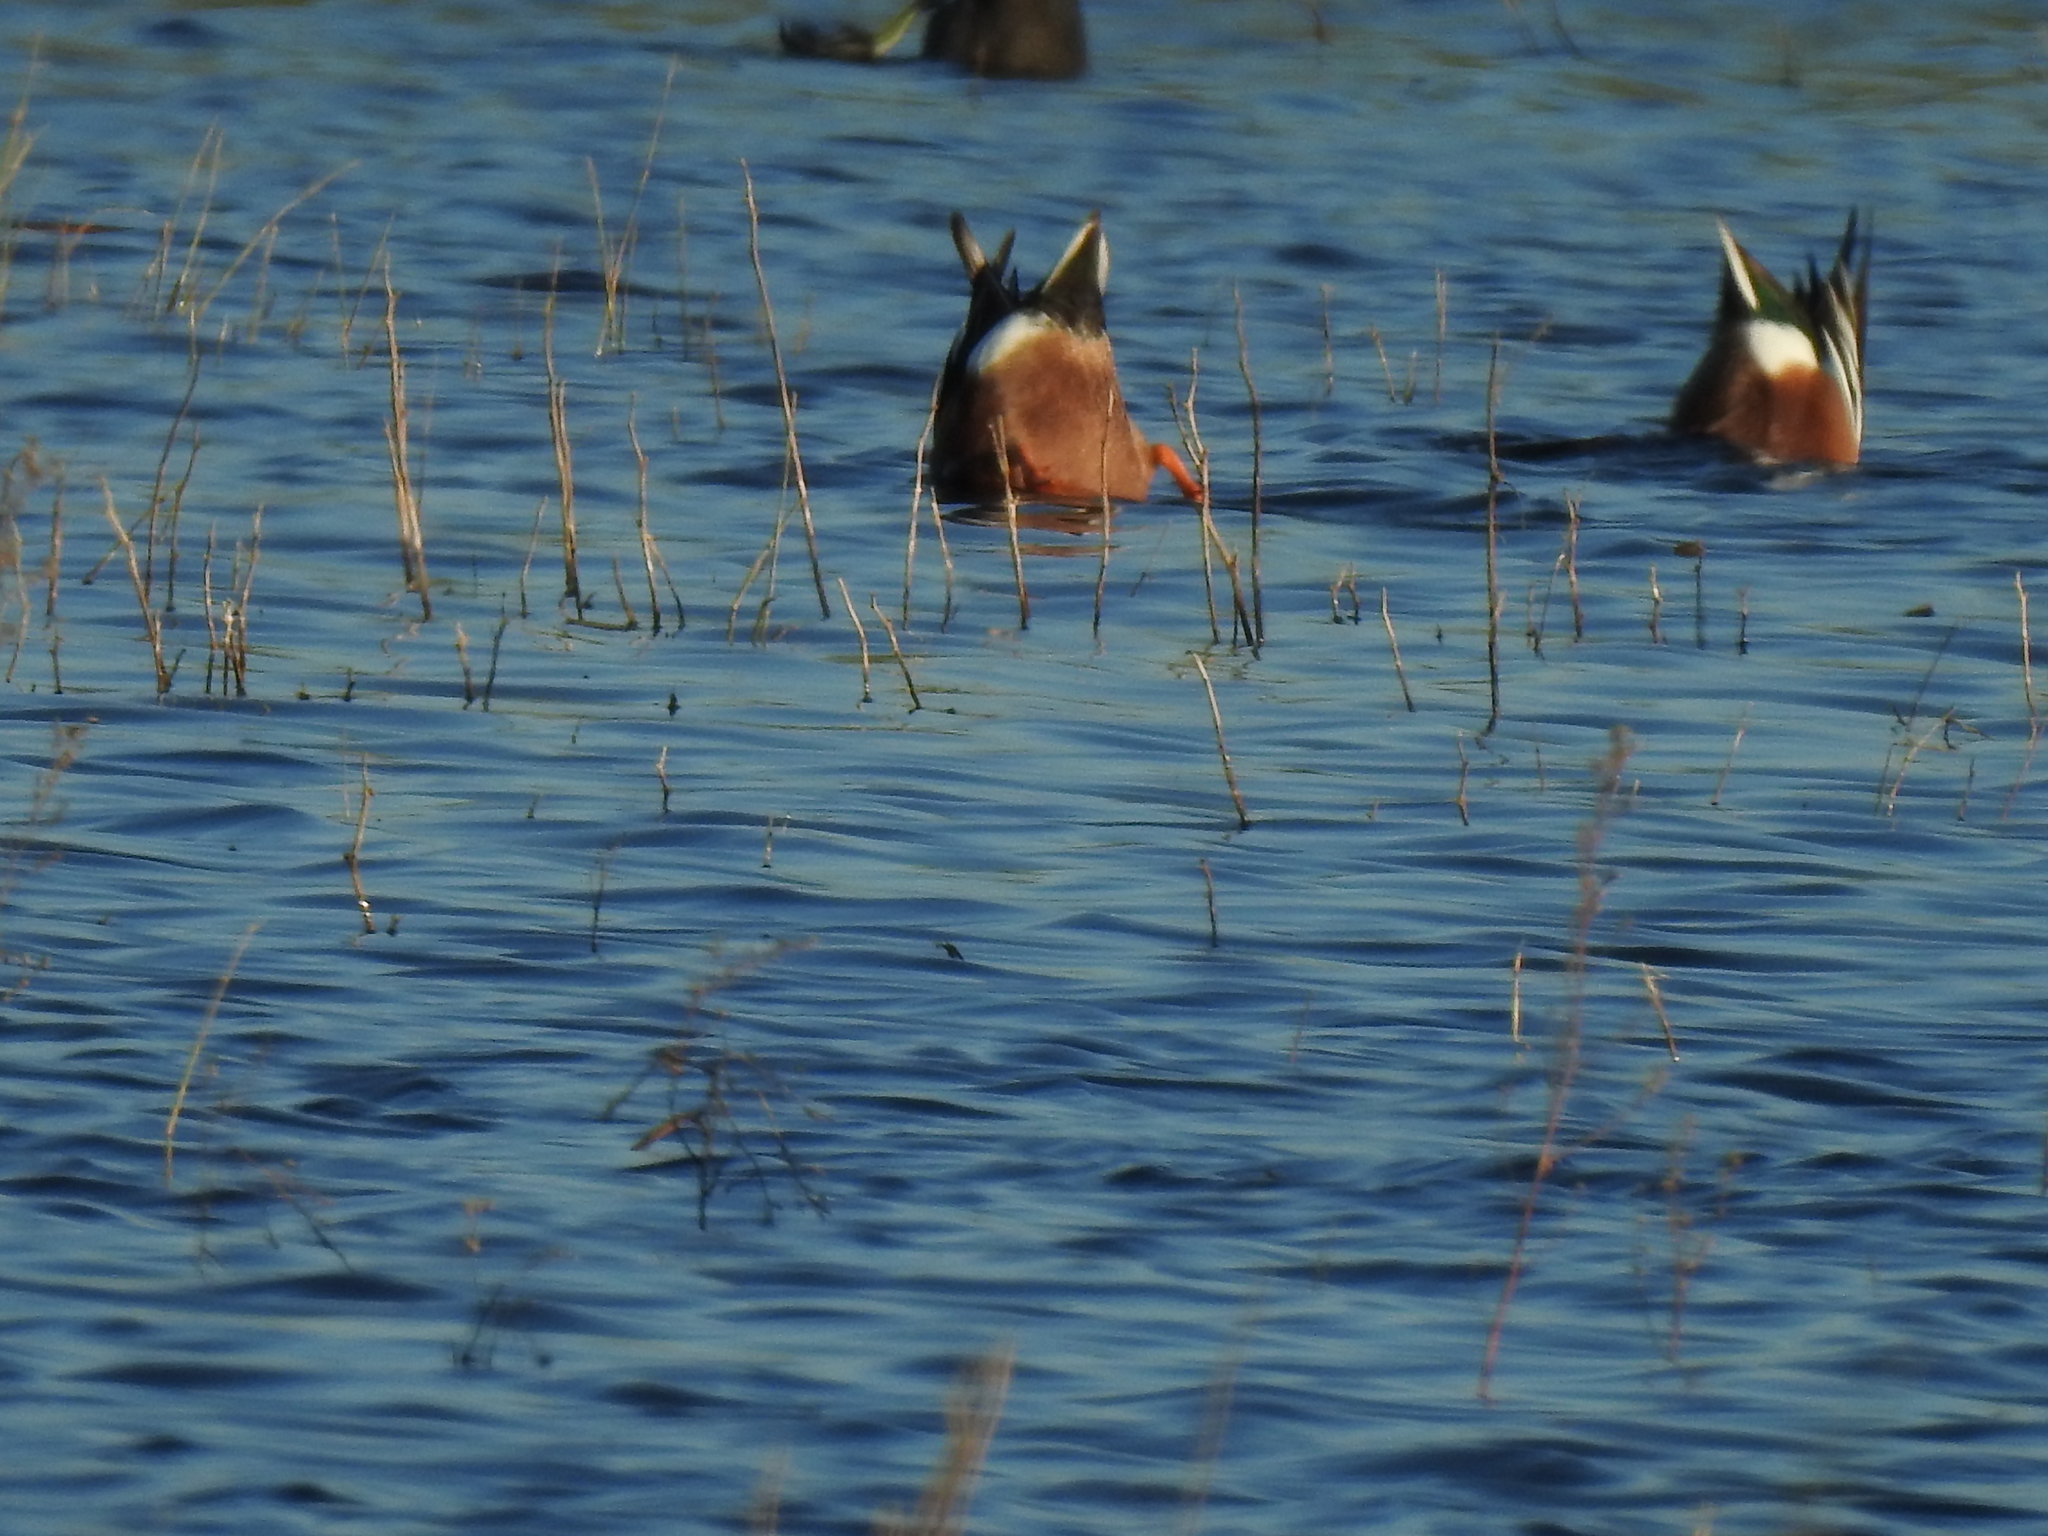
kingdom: Animalia
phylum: Chordata
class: Aves
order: Anseriformes
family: Anatidae
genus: Spatula
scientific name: Spatula clypeata
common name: Northern shoveler
